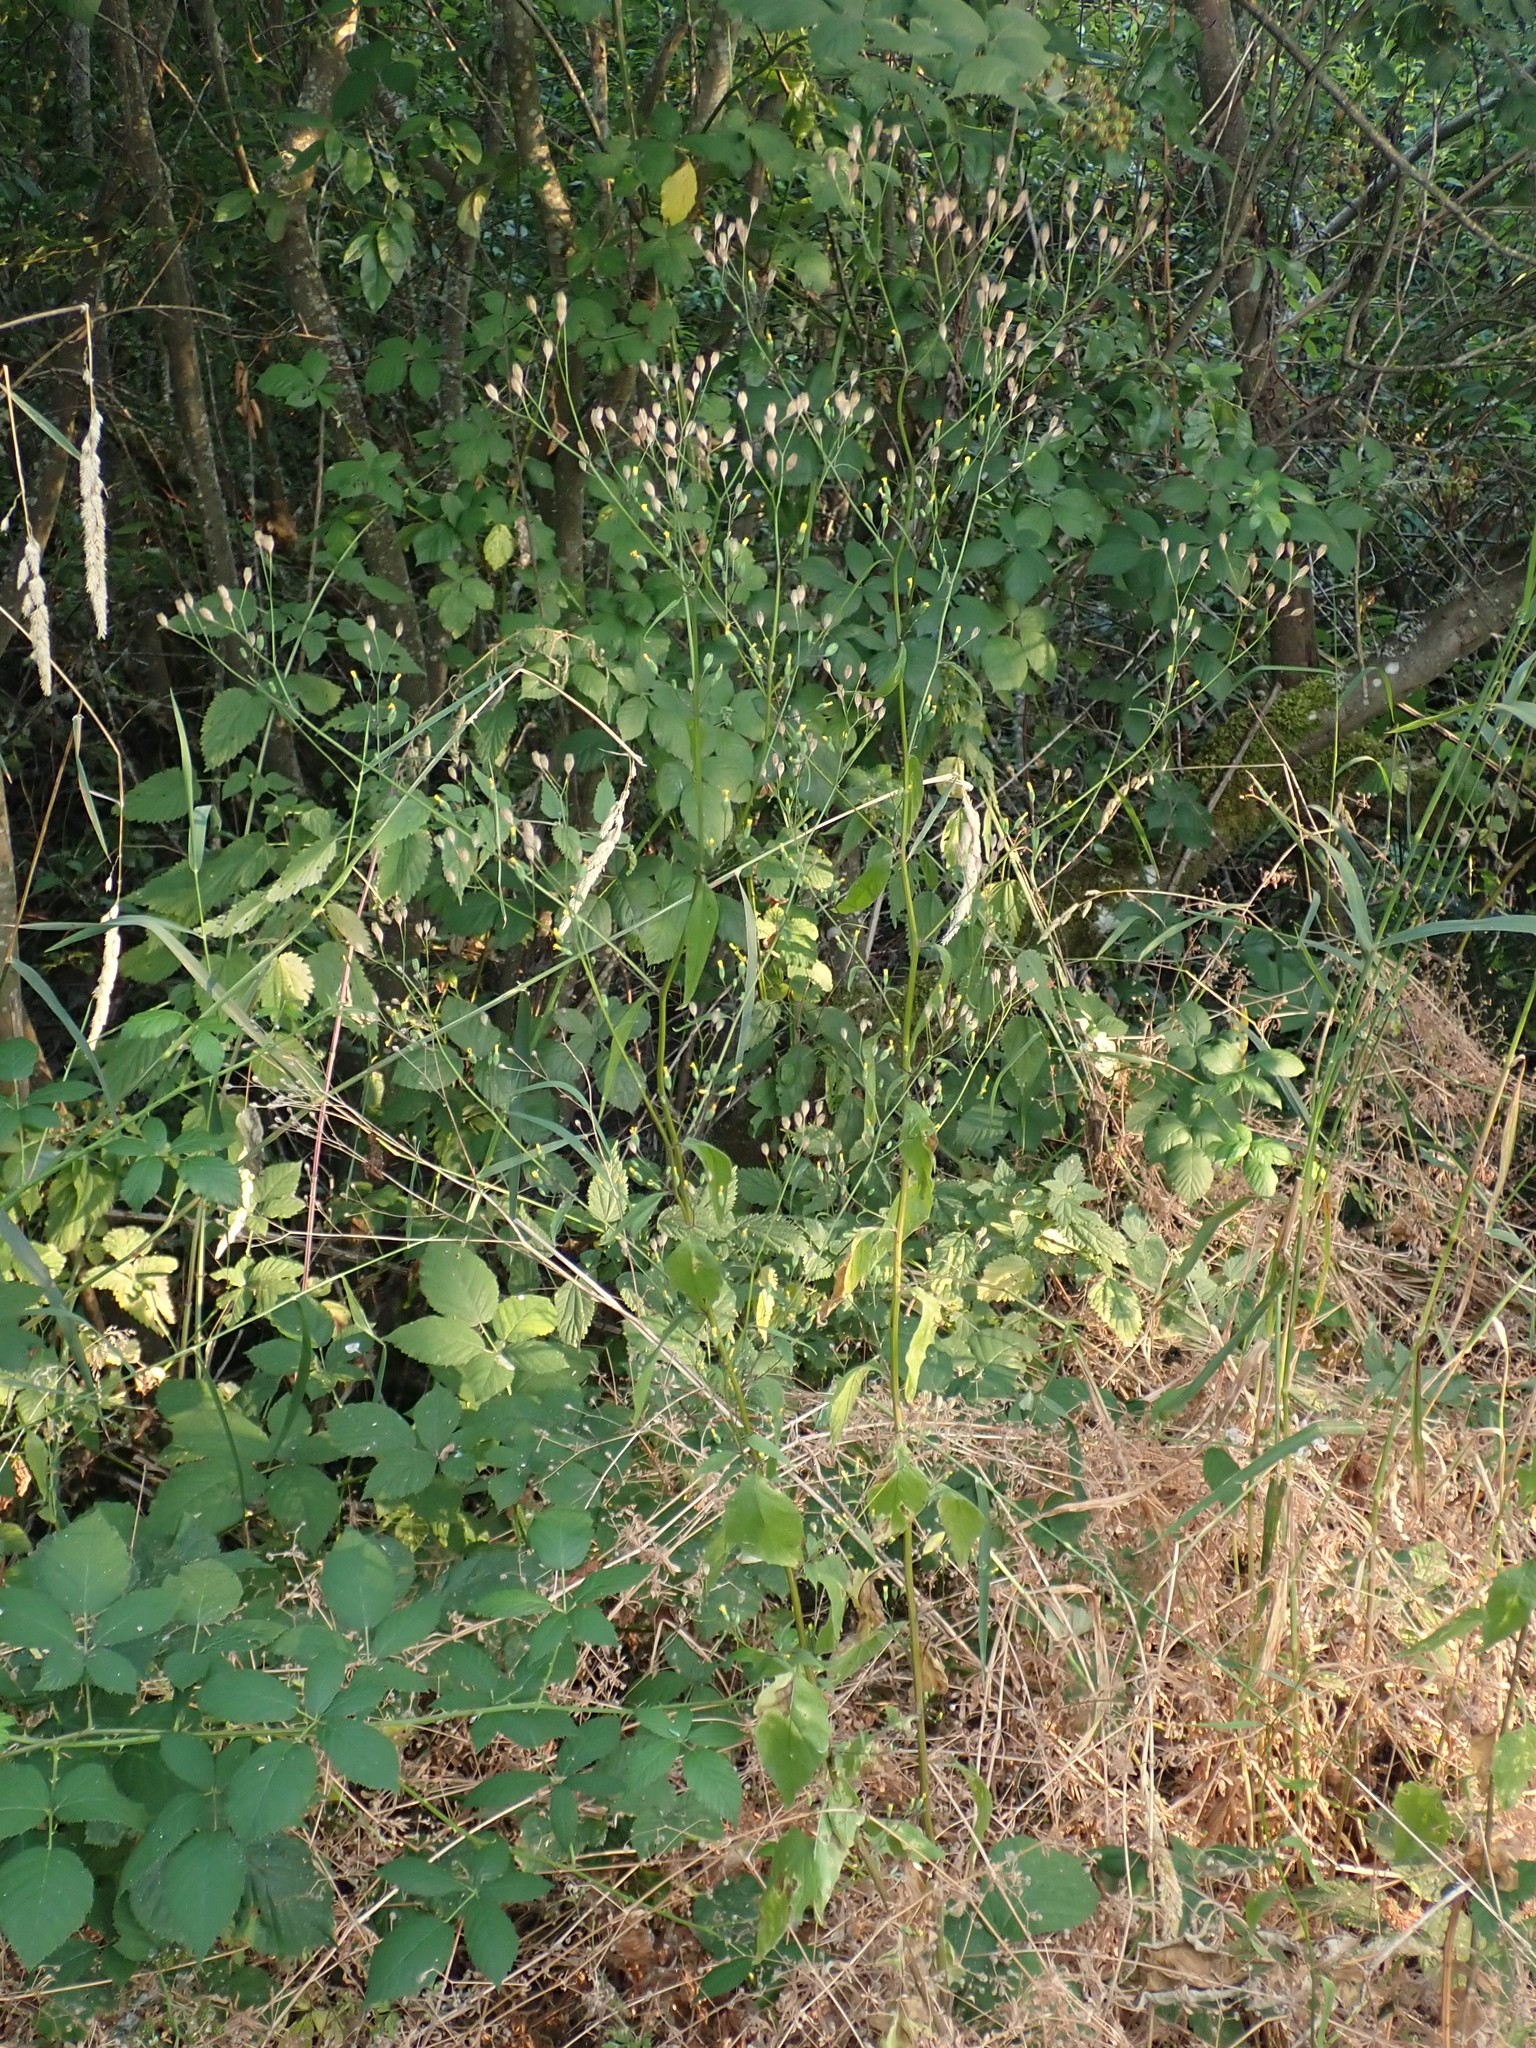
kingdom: Plantae
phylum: Tracheophyta
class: Magnoliopsida
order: Asterales
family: Asteraceae
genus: Lapsana
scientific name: Lapsana communis
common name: Nipplewort
